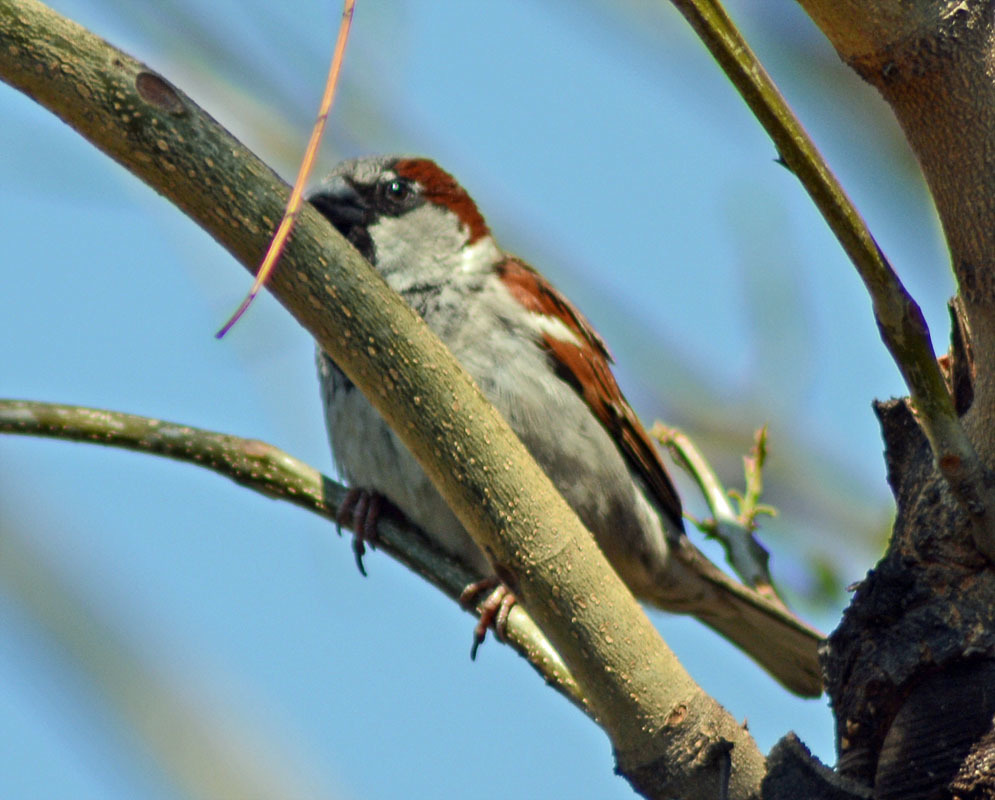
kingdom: Animalia
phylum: Chordata
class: Aves
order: Passeriformes
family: Passeridae
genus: Passer
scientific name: Passer domesticus
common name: House sparrow
